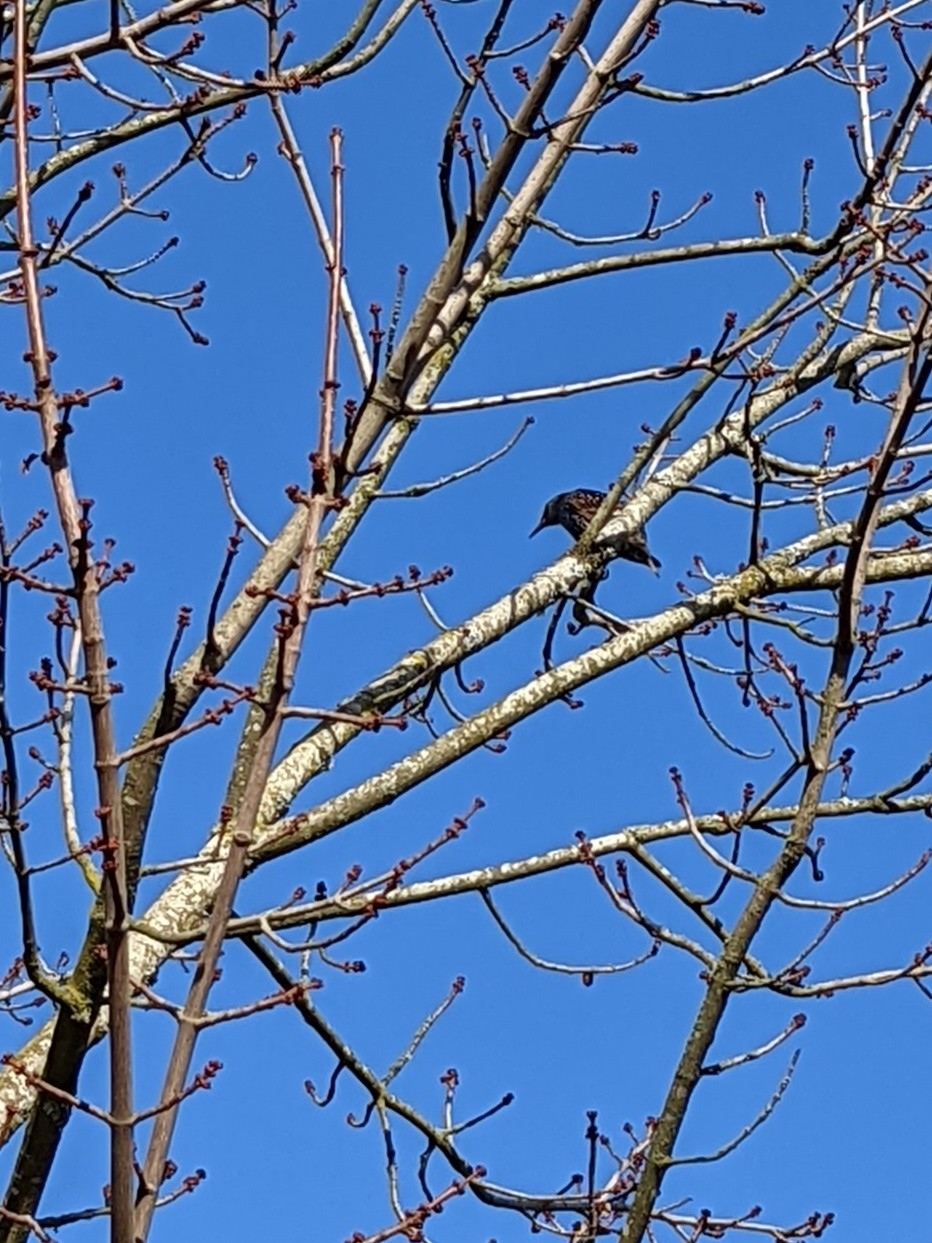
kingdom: Animalia
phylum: Chordata
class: Aves
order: Passeriformes
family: Sturnidae
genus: Sturnus
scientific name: Sturnus vulgaris
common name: Common starling
